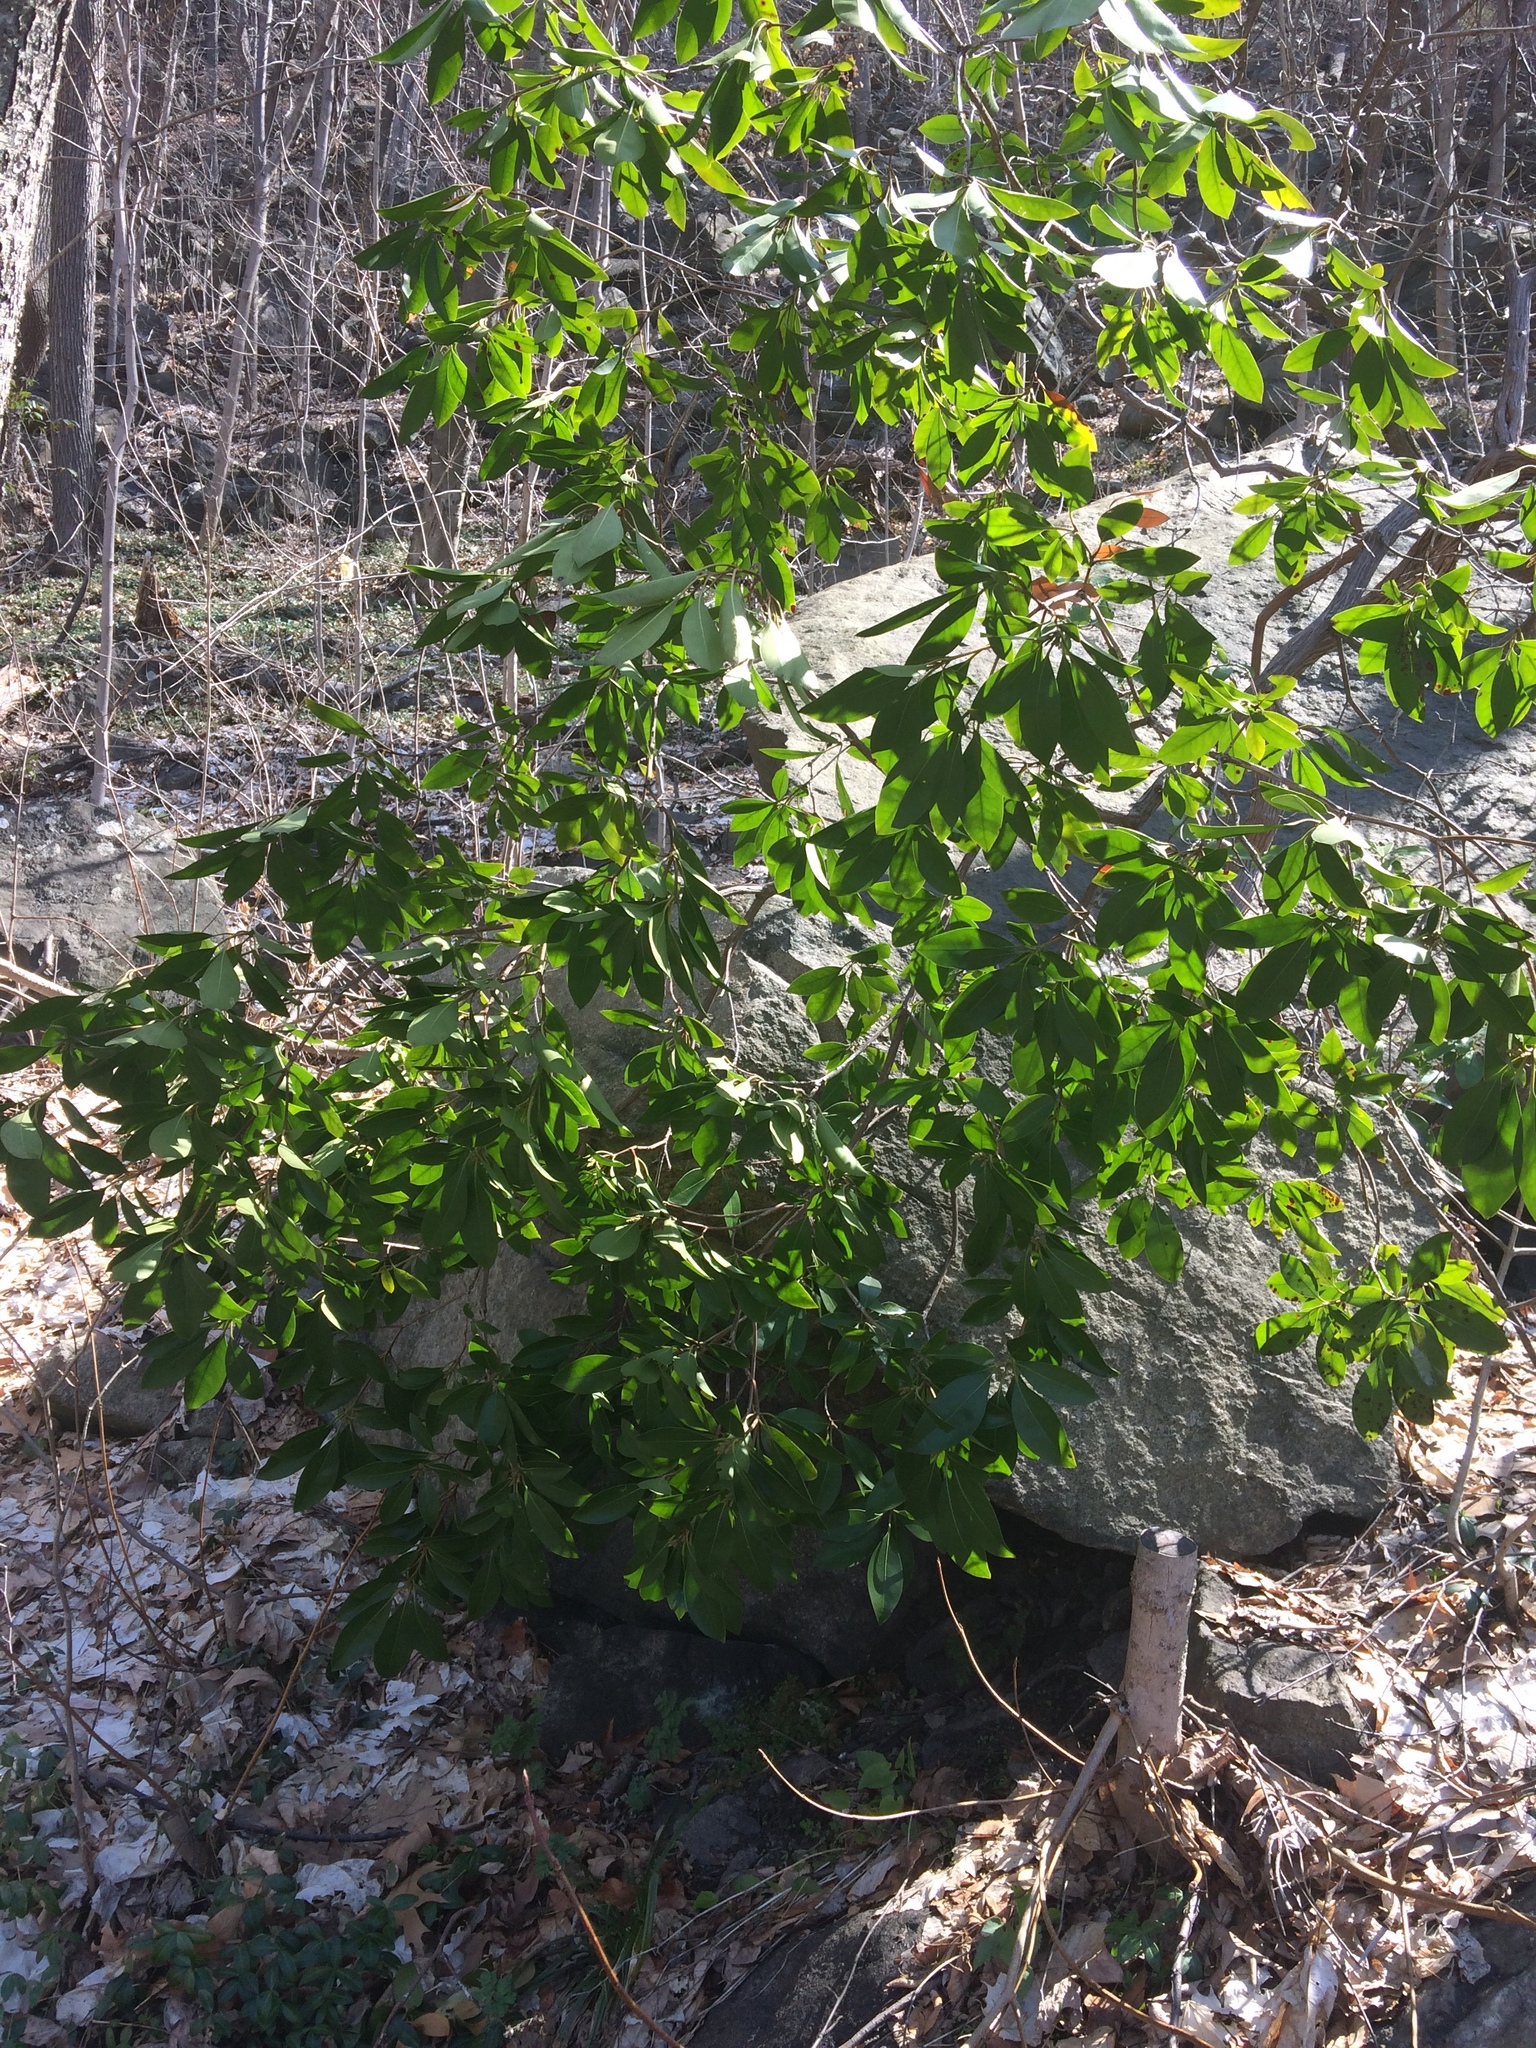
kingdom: Plantae
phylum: Tracheophyta
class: Magnoliopsida
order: Ericales
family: Ericaceae
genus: Kalmia
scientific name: Kalmia latifolia
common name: Mountain-laurel
